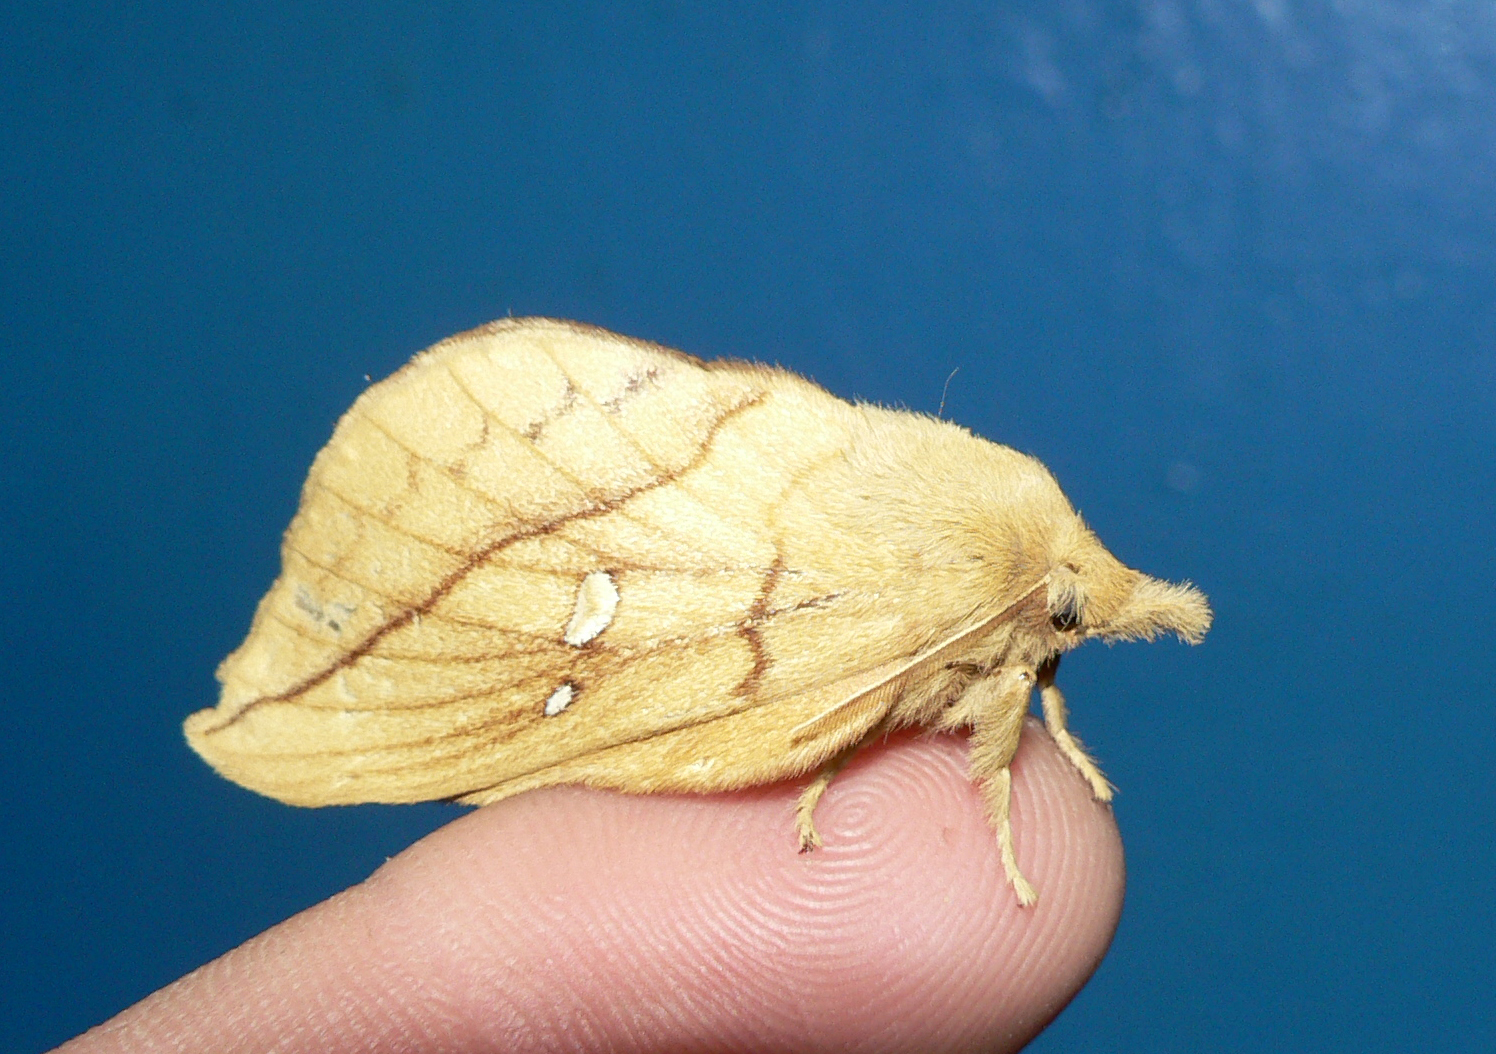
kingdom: Animalia
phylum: Arthropoda
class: Insecta
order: Lepidoptera
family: Lasiocampidae
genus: Euthrix
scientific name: Euthrix potatoria
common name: Drinker
